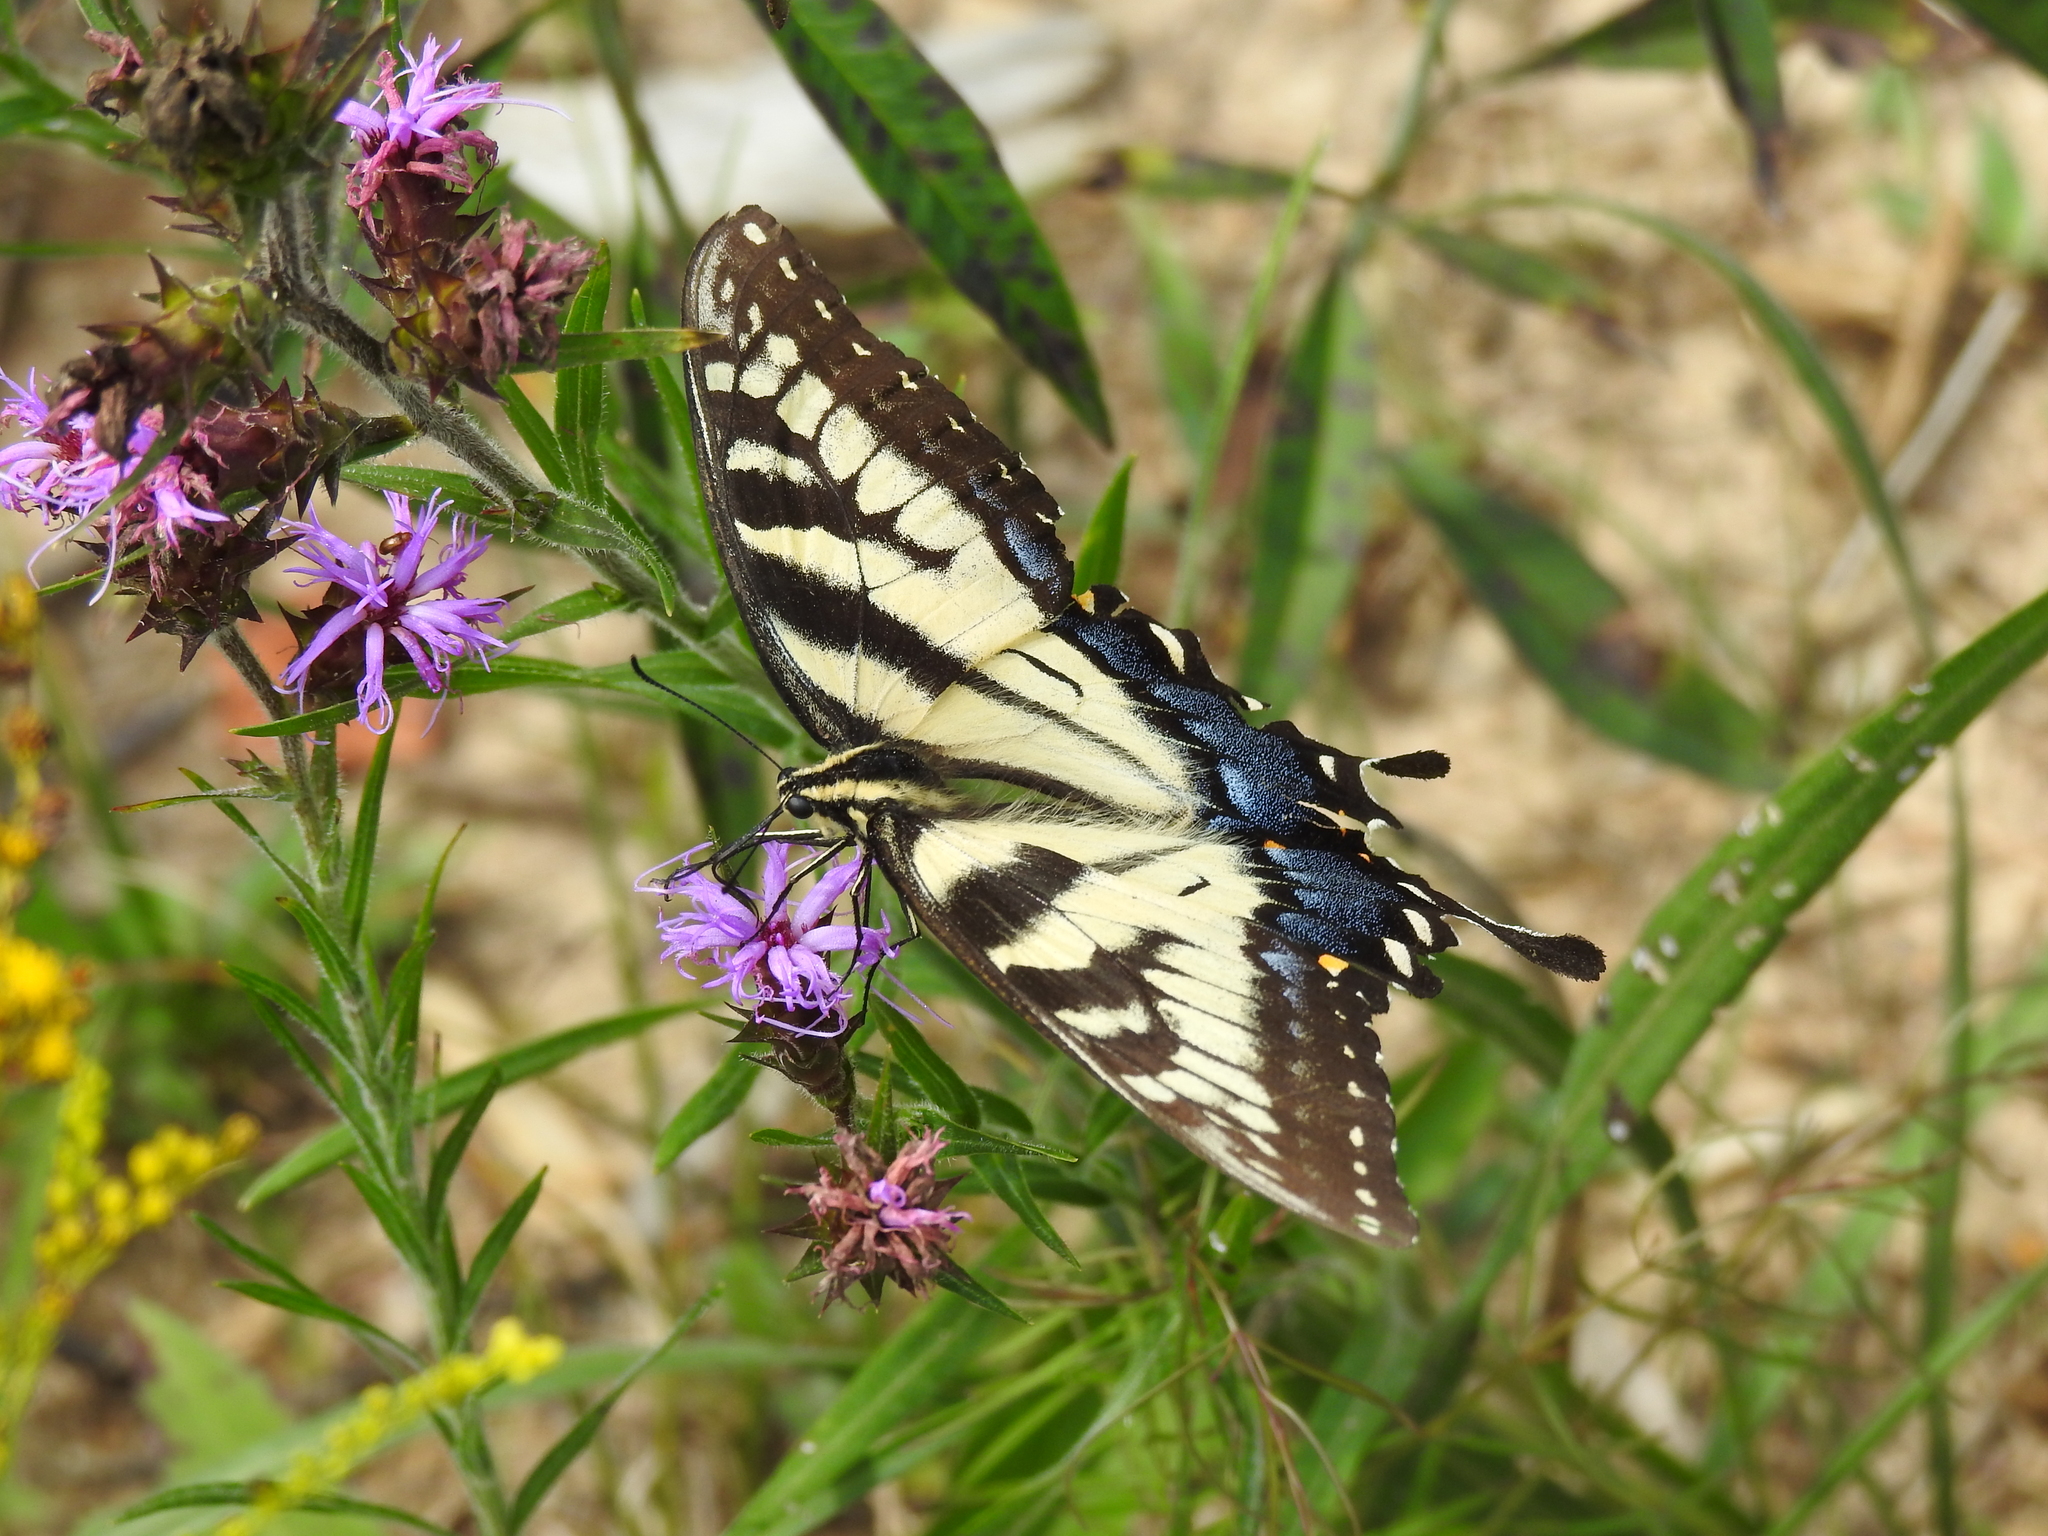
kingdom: Animalia
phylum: Arthropoda
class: Insecta
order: Lepidoptera
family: Papilionidae
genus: Papilio
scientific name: Papilio glaucus
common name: Tiger swallowtail
